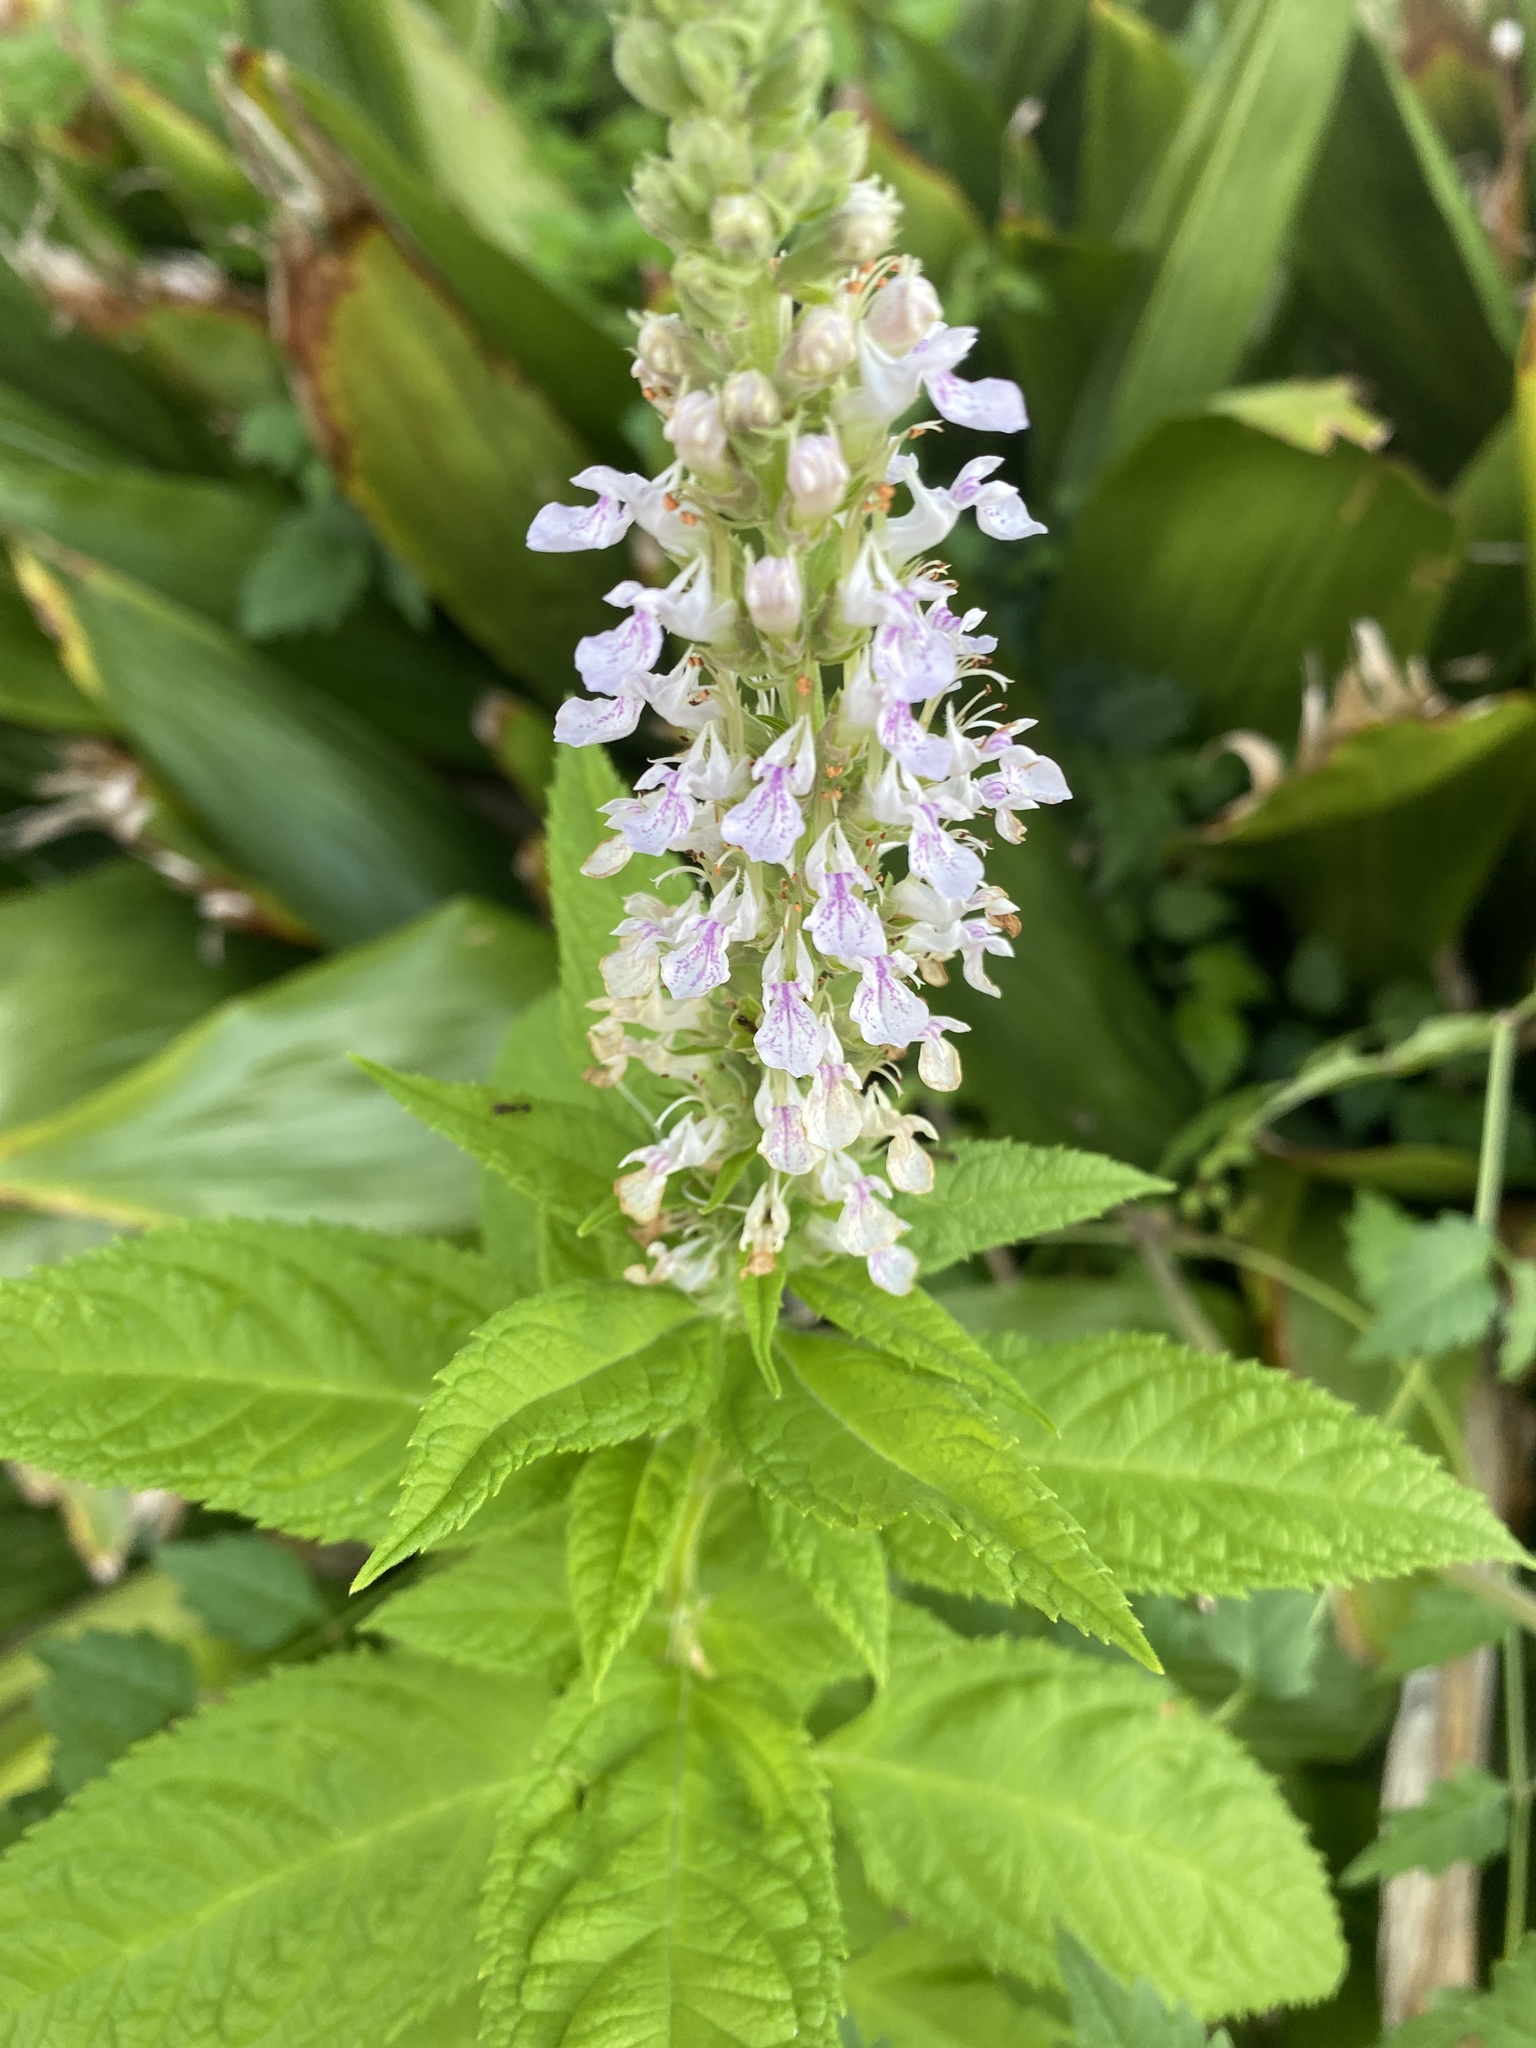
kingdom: Plantae
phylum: Tracheophyta
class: Magnoliopsida
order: Lamiales
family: Lamiaceae
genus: Teucrium
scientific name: Teucrium canadense
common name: American germander
